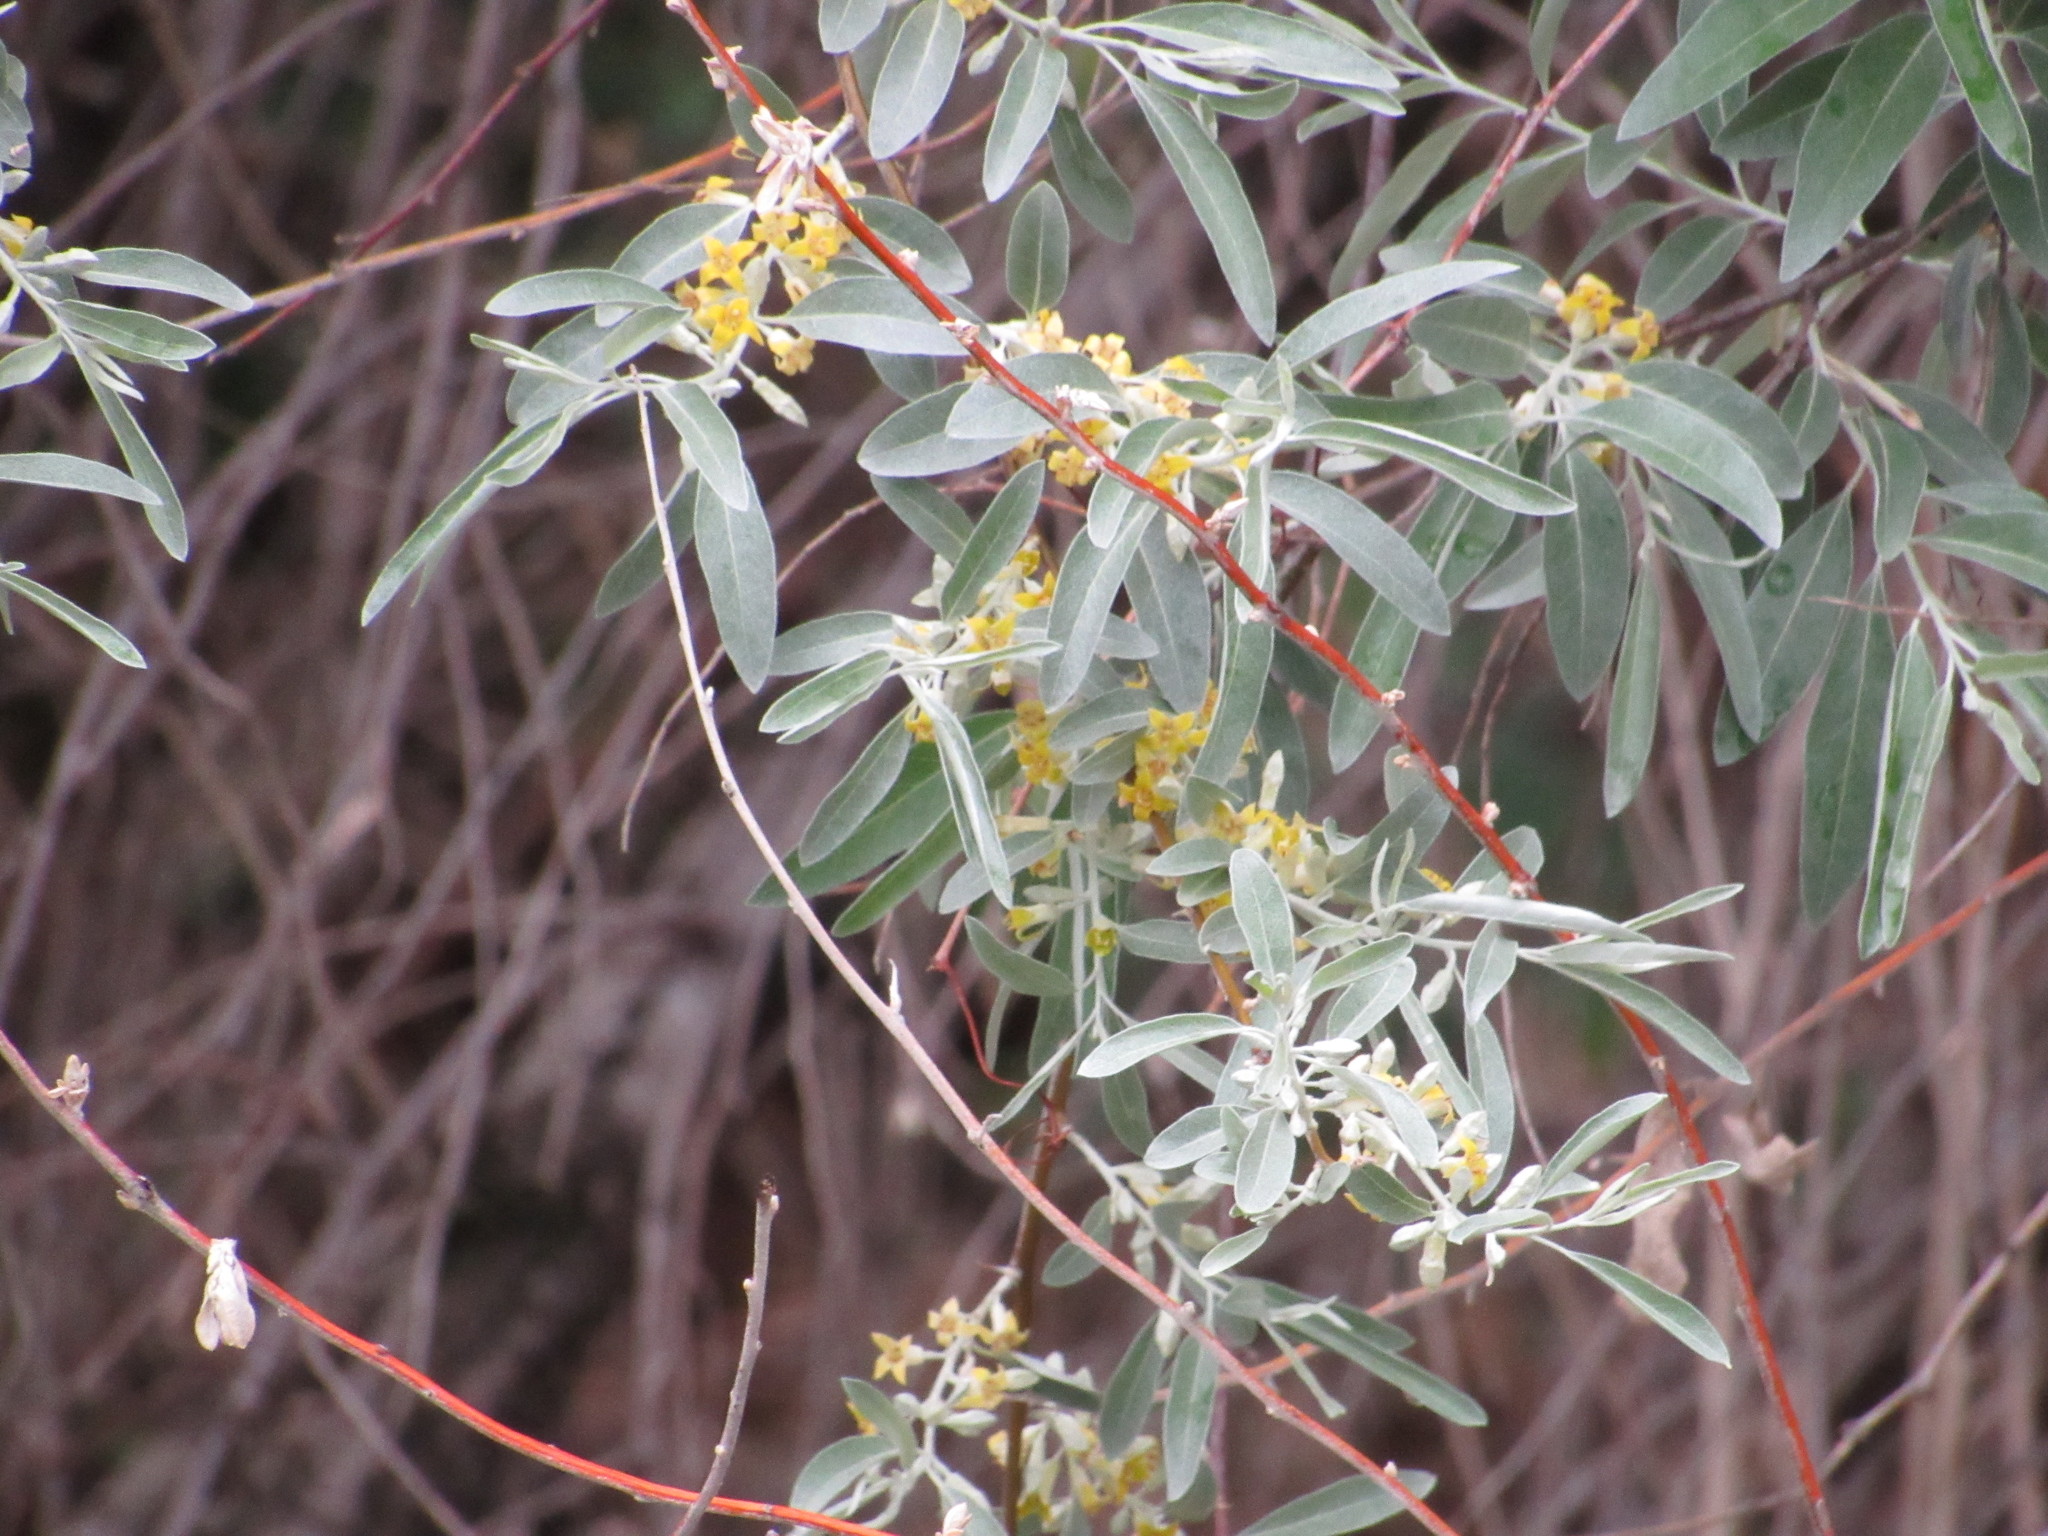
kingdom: Plantae
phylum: Tracheophyta
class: Magnoliopsida
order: Rosales
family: Elaeagnaceae
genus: Elaeagnus
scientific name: Elaeagnus angustifolia
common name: Russian olive
